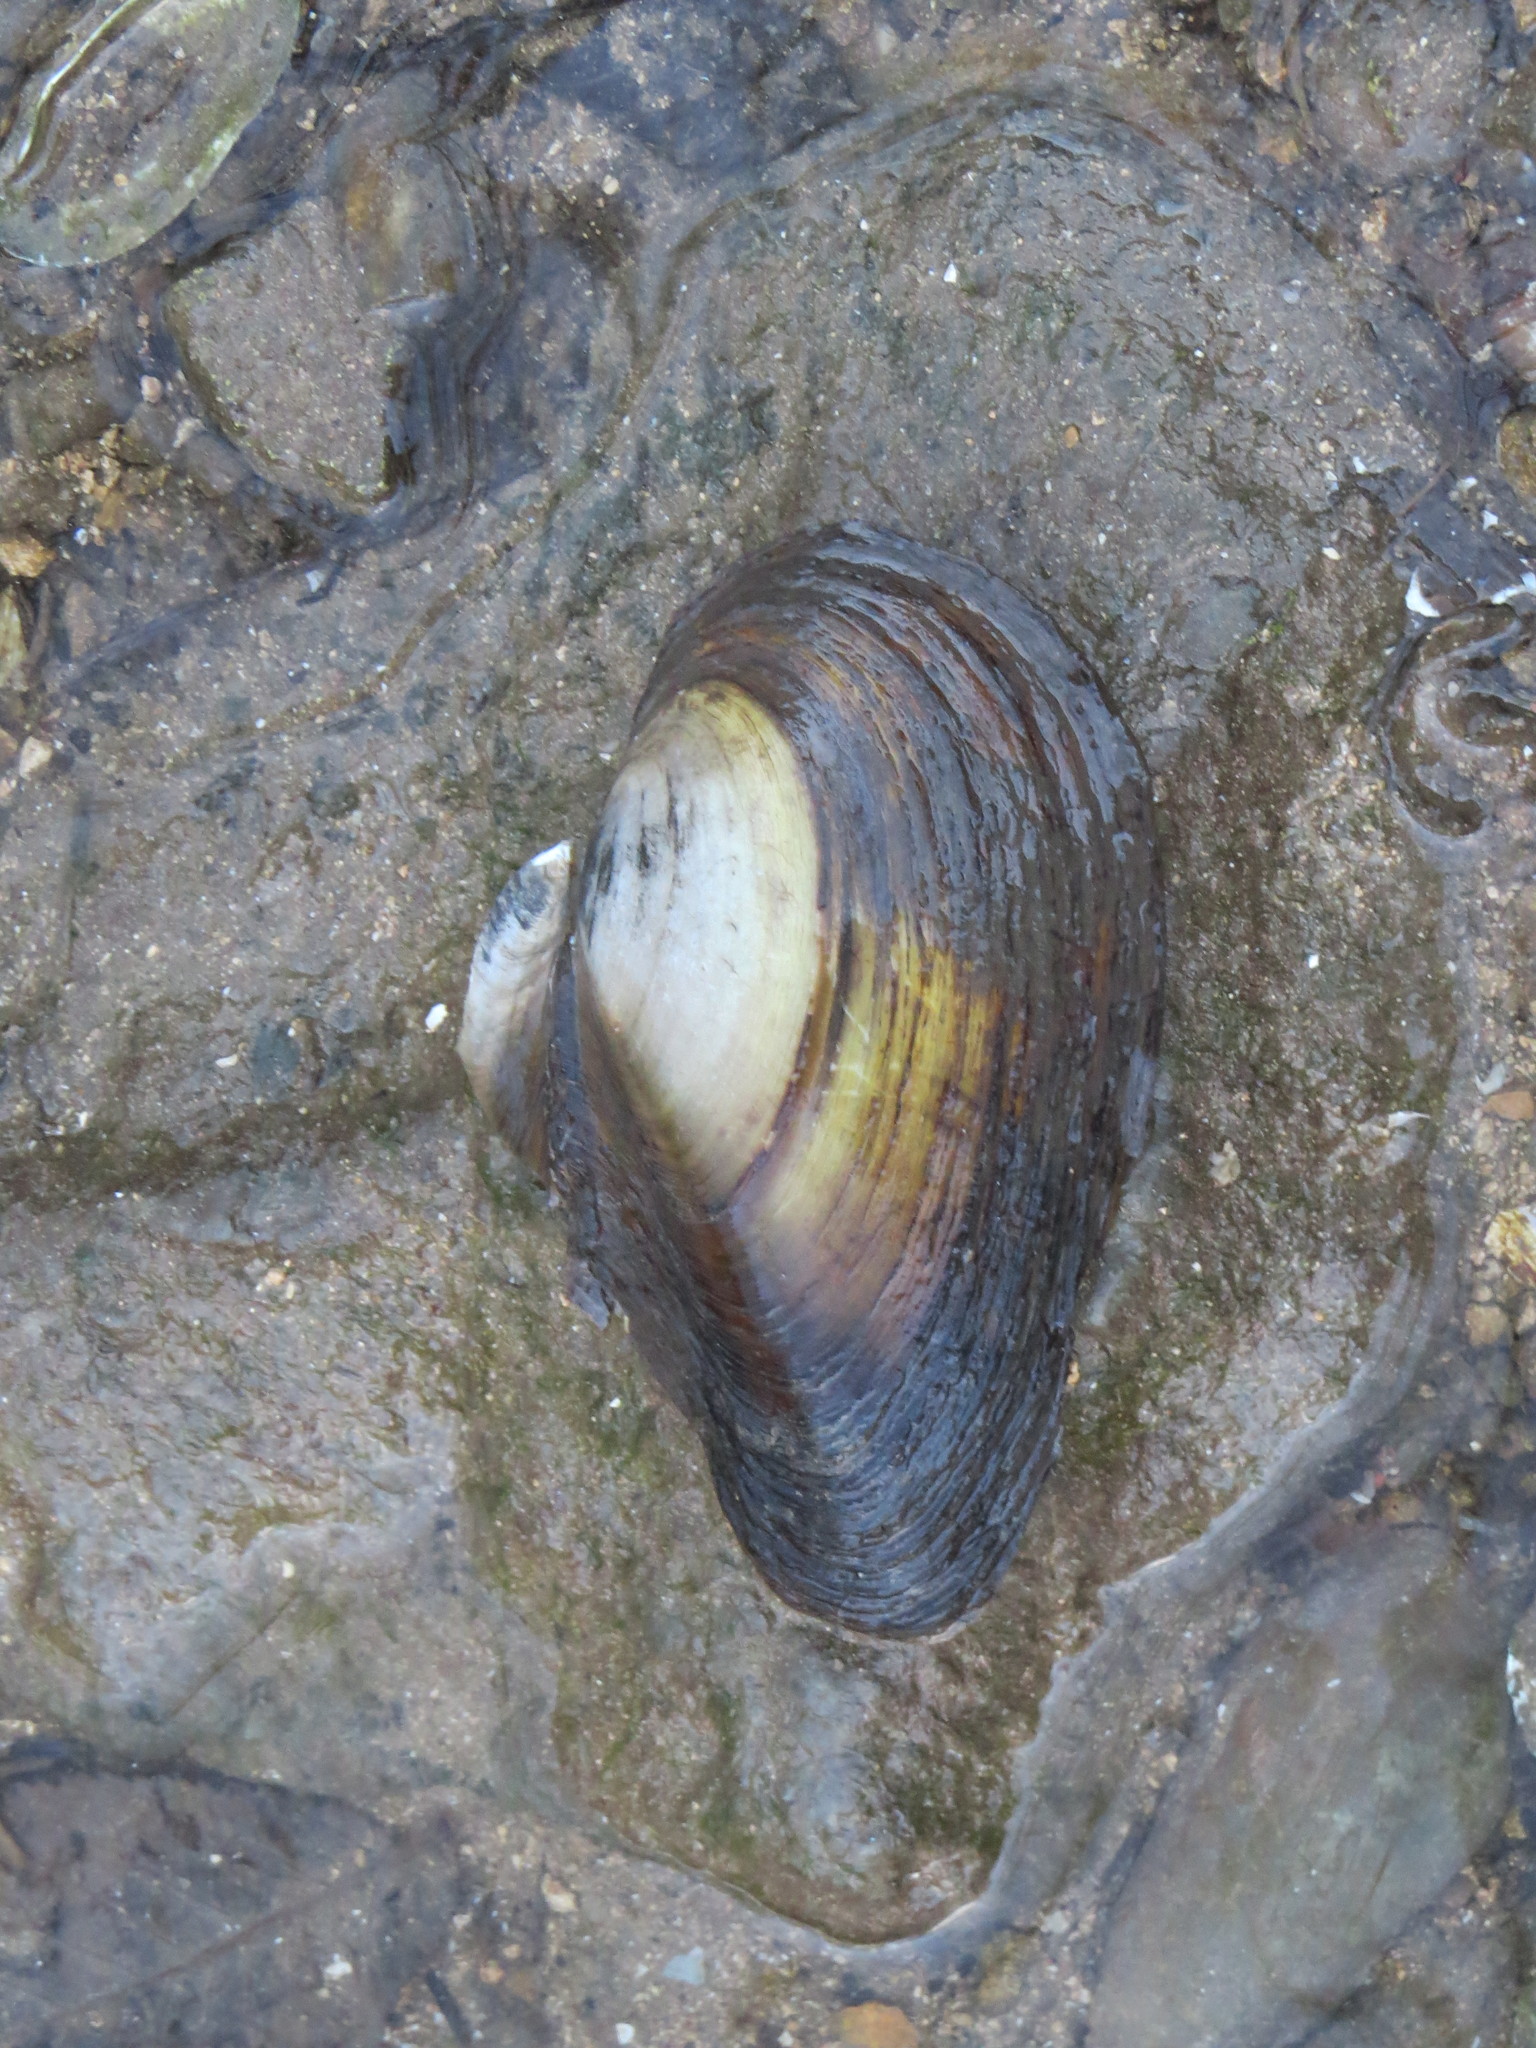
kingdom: Animalia
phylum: Mollusca
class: Bivalvia
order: Unionida
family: Unionidae
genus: Anodonta
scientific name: Anodonta anatina
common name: Duck mussel
